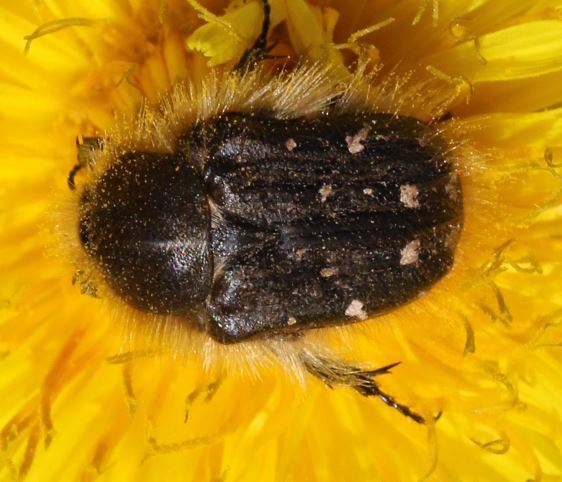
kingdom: Animalia
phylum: Arthropoda
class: Insecta
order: Coleoptera
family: Scarabaeidae
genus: Tropinota
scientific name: Tropinota hirta
